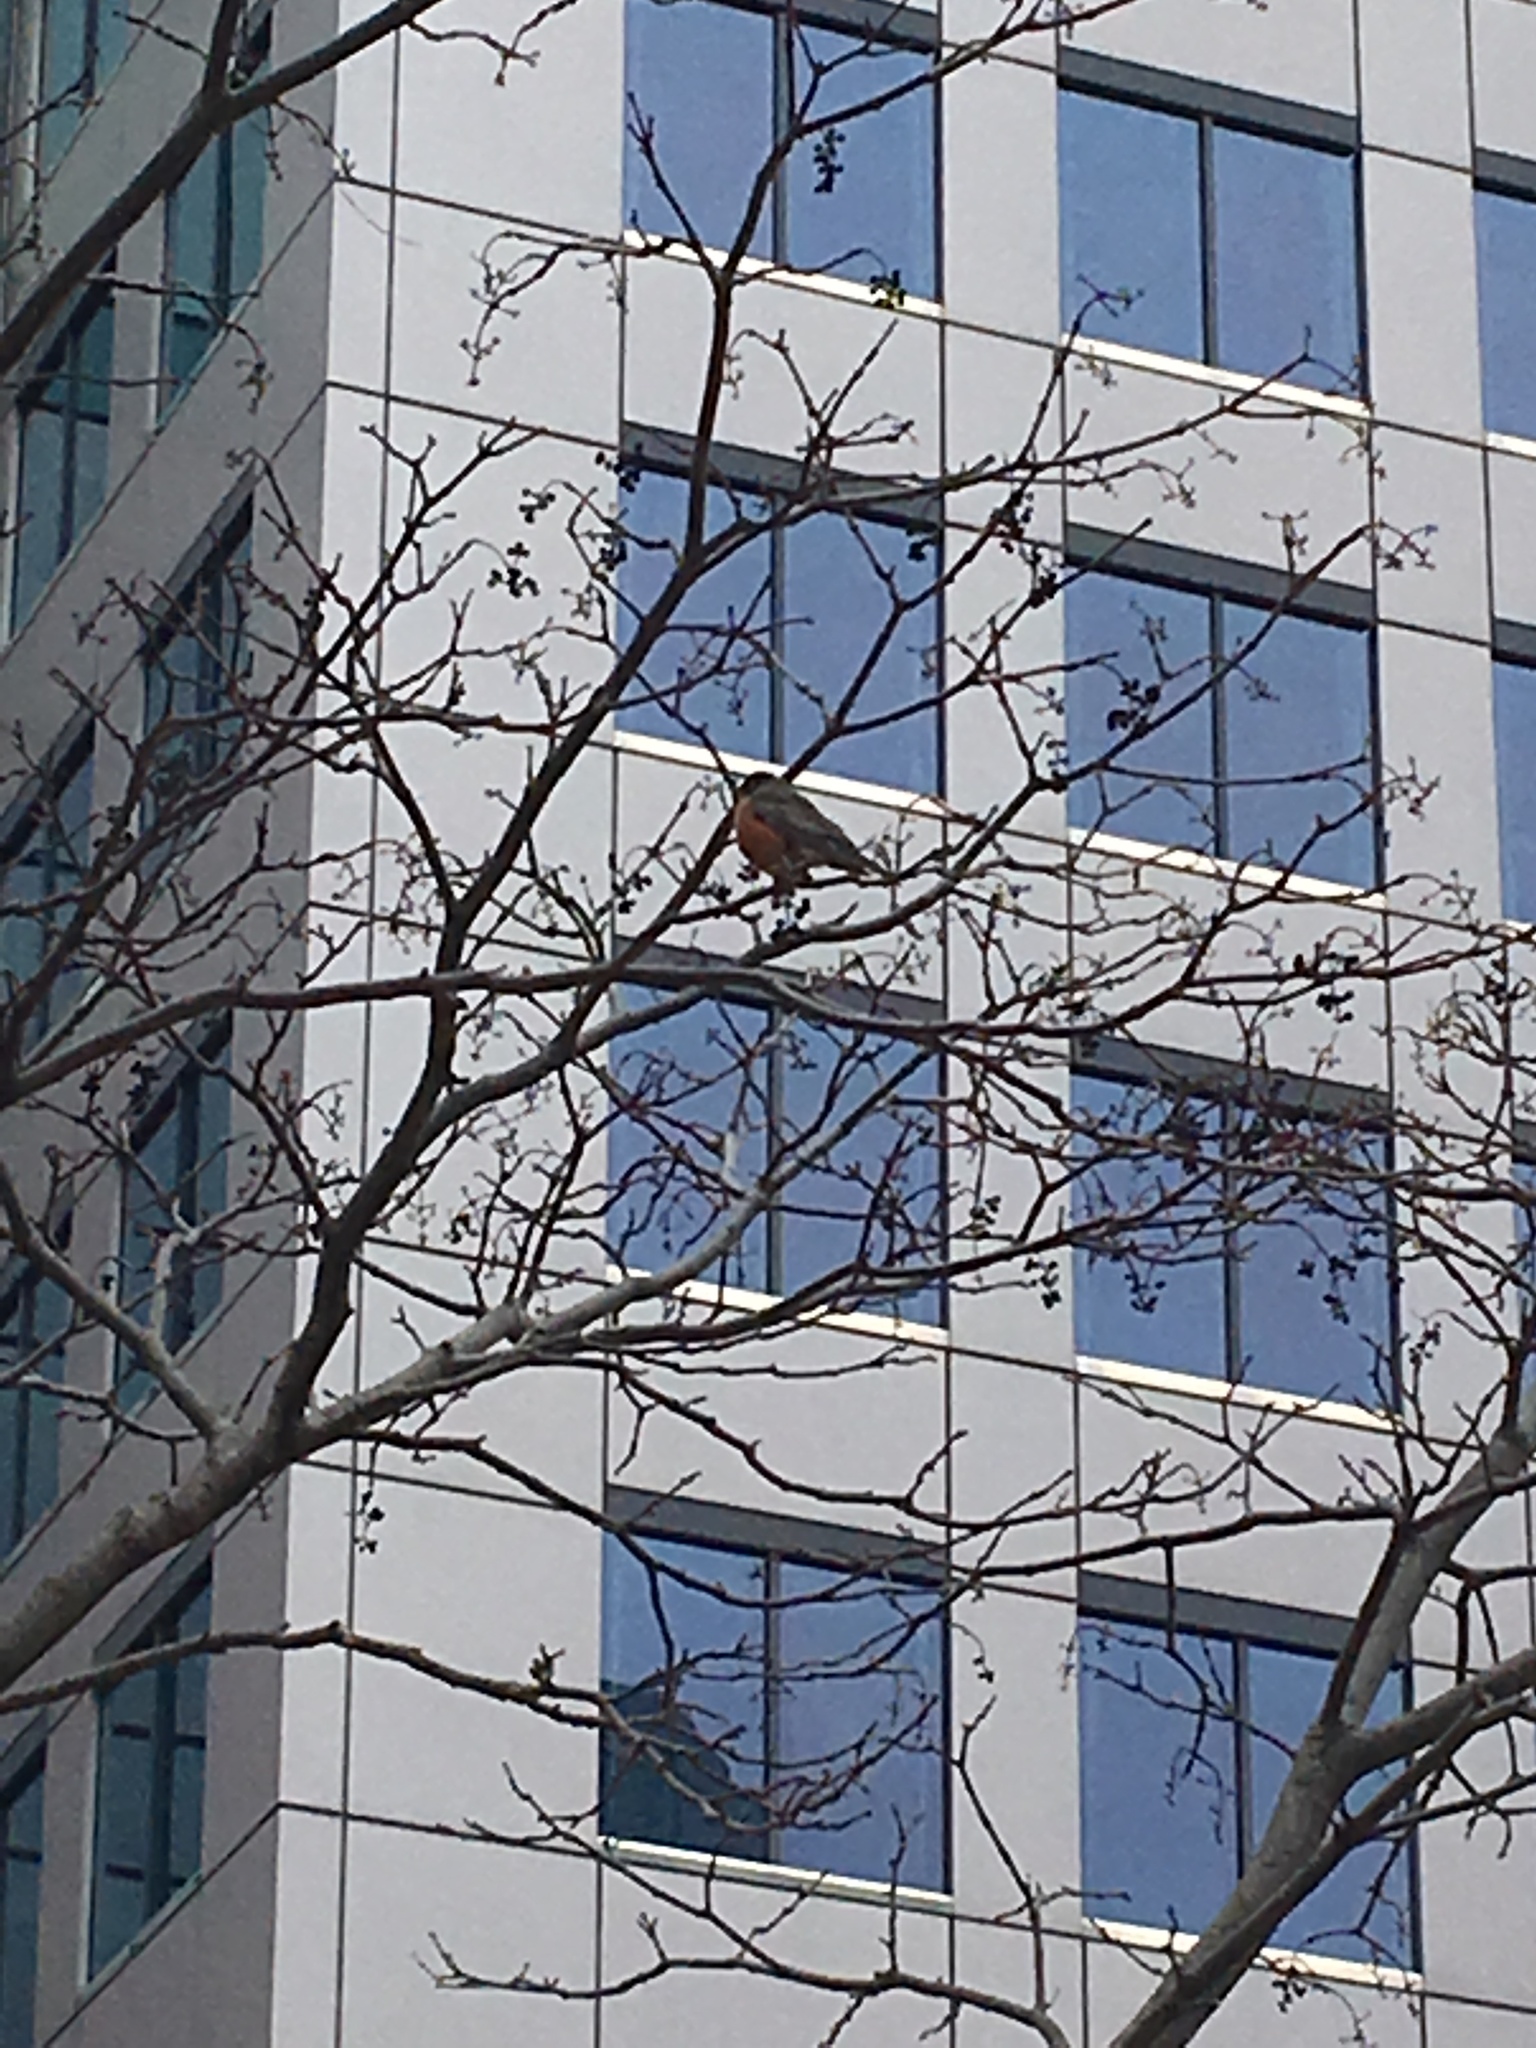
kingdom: Animalia
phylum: Chordata
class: Aves
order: Passeriformes
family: Turdidae
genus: Turdus
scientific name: Turdus migratorius
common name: American robin
